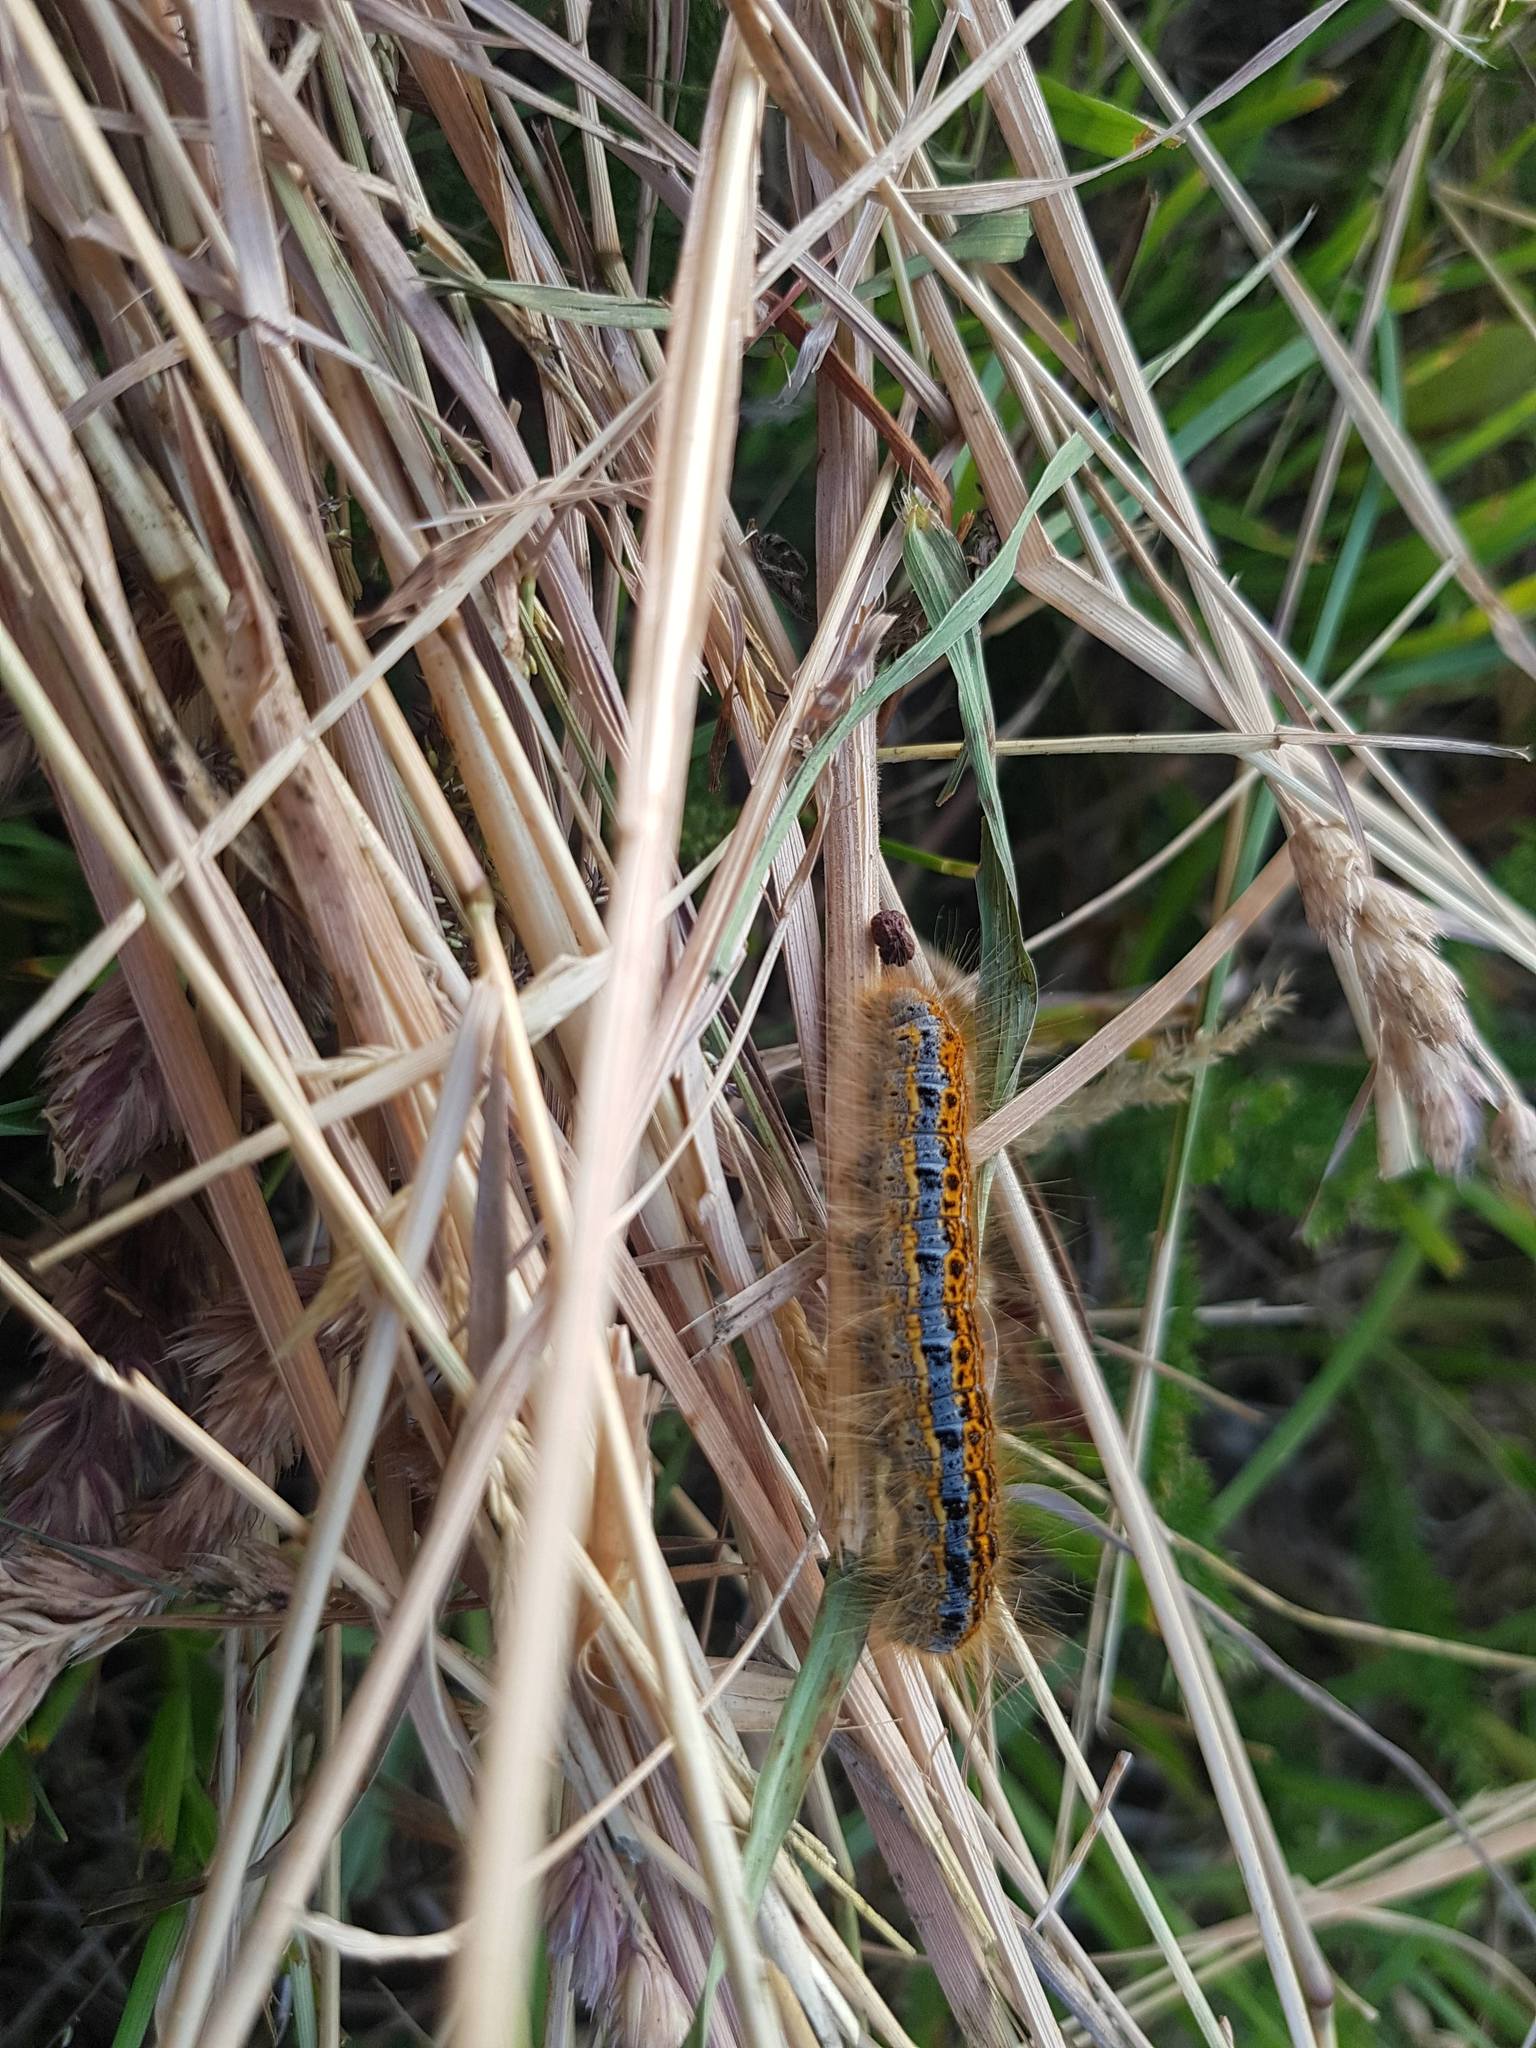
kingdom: Animalia
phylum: Arthropoda
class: Insecta
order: Lepidoptera
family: Lasiocampidae
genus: Malacosoma
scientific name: Malacosoma castrense
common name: Ground lackey
